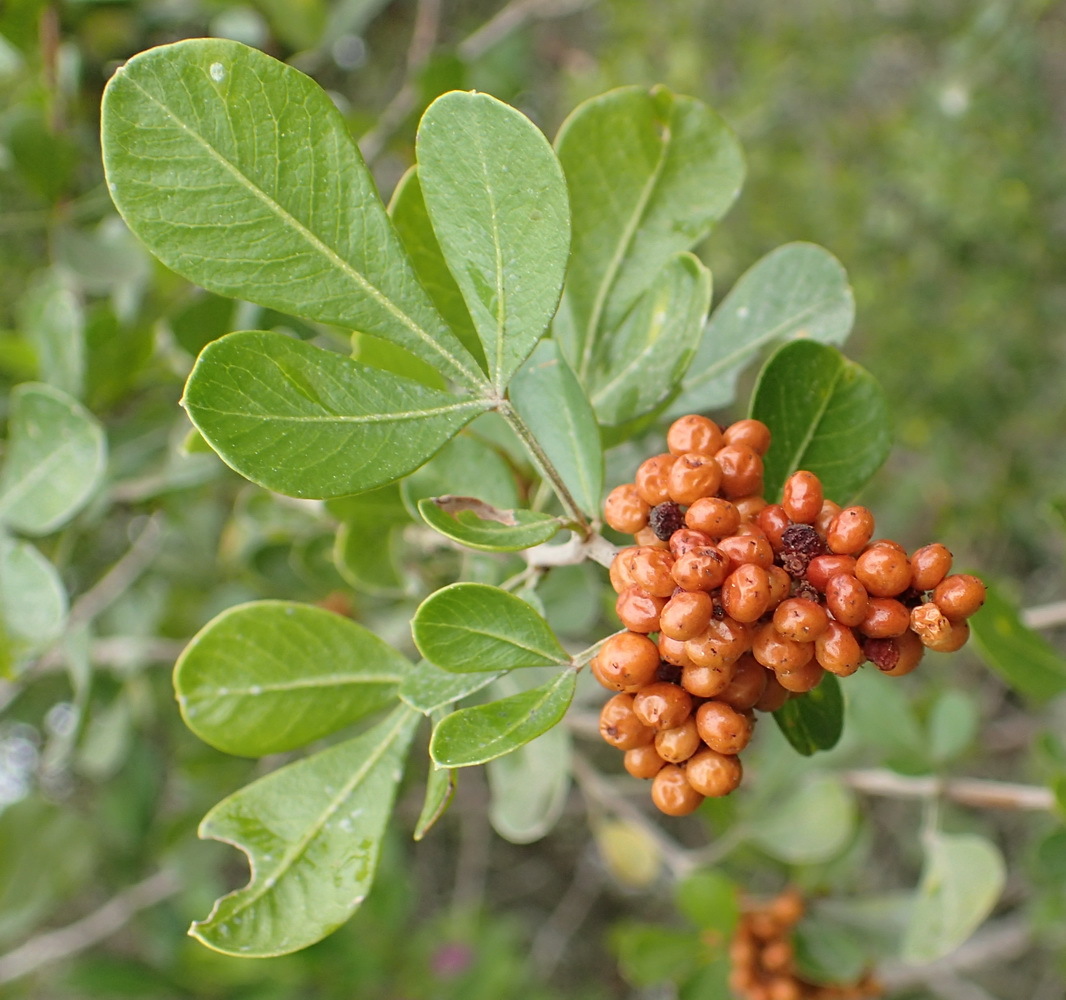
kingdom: Plantae
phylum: Tracheophyta
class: Magnoliopsida
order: Sapindales
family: Anacardiaceae
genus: Searsia
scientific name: Searsia pallens
